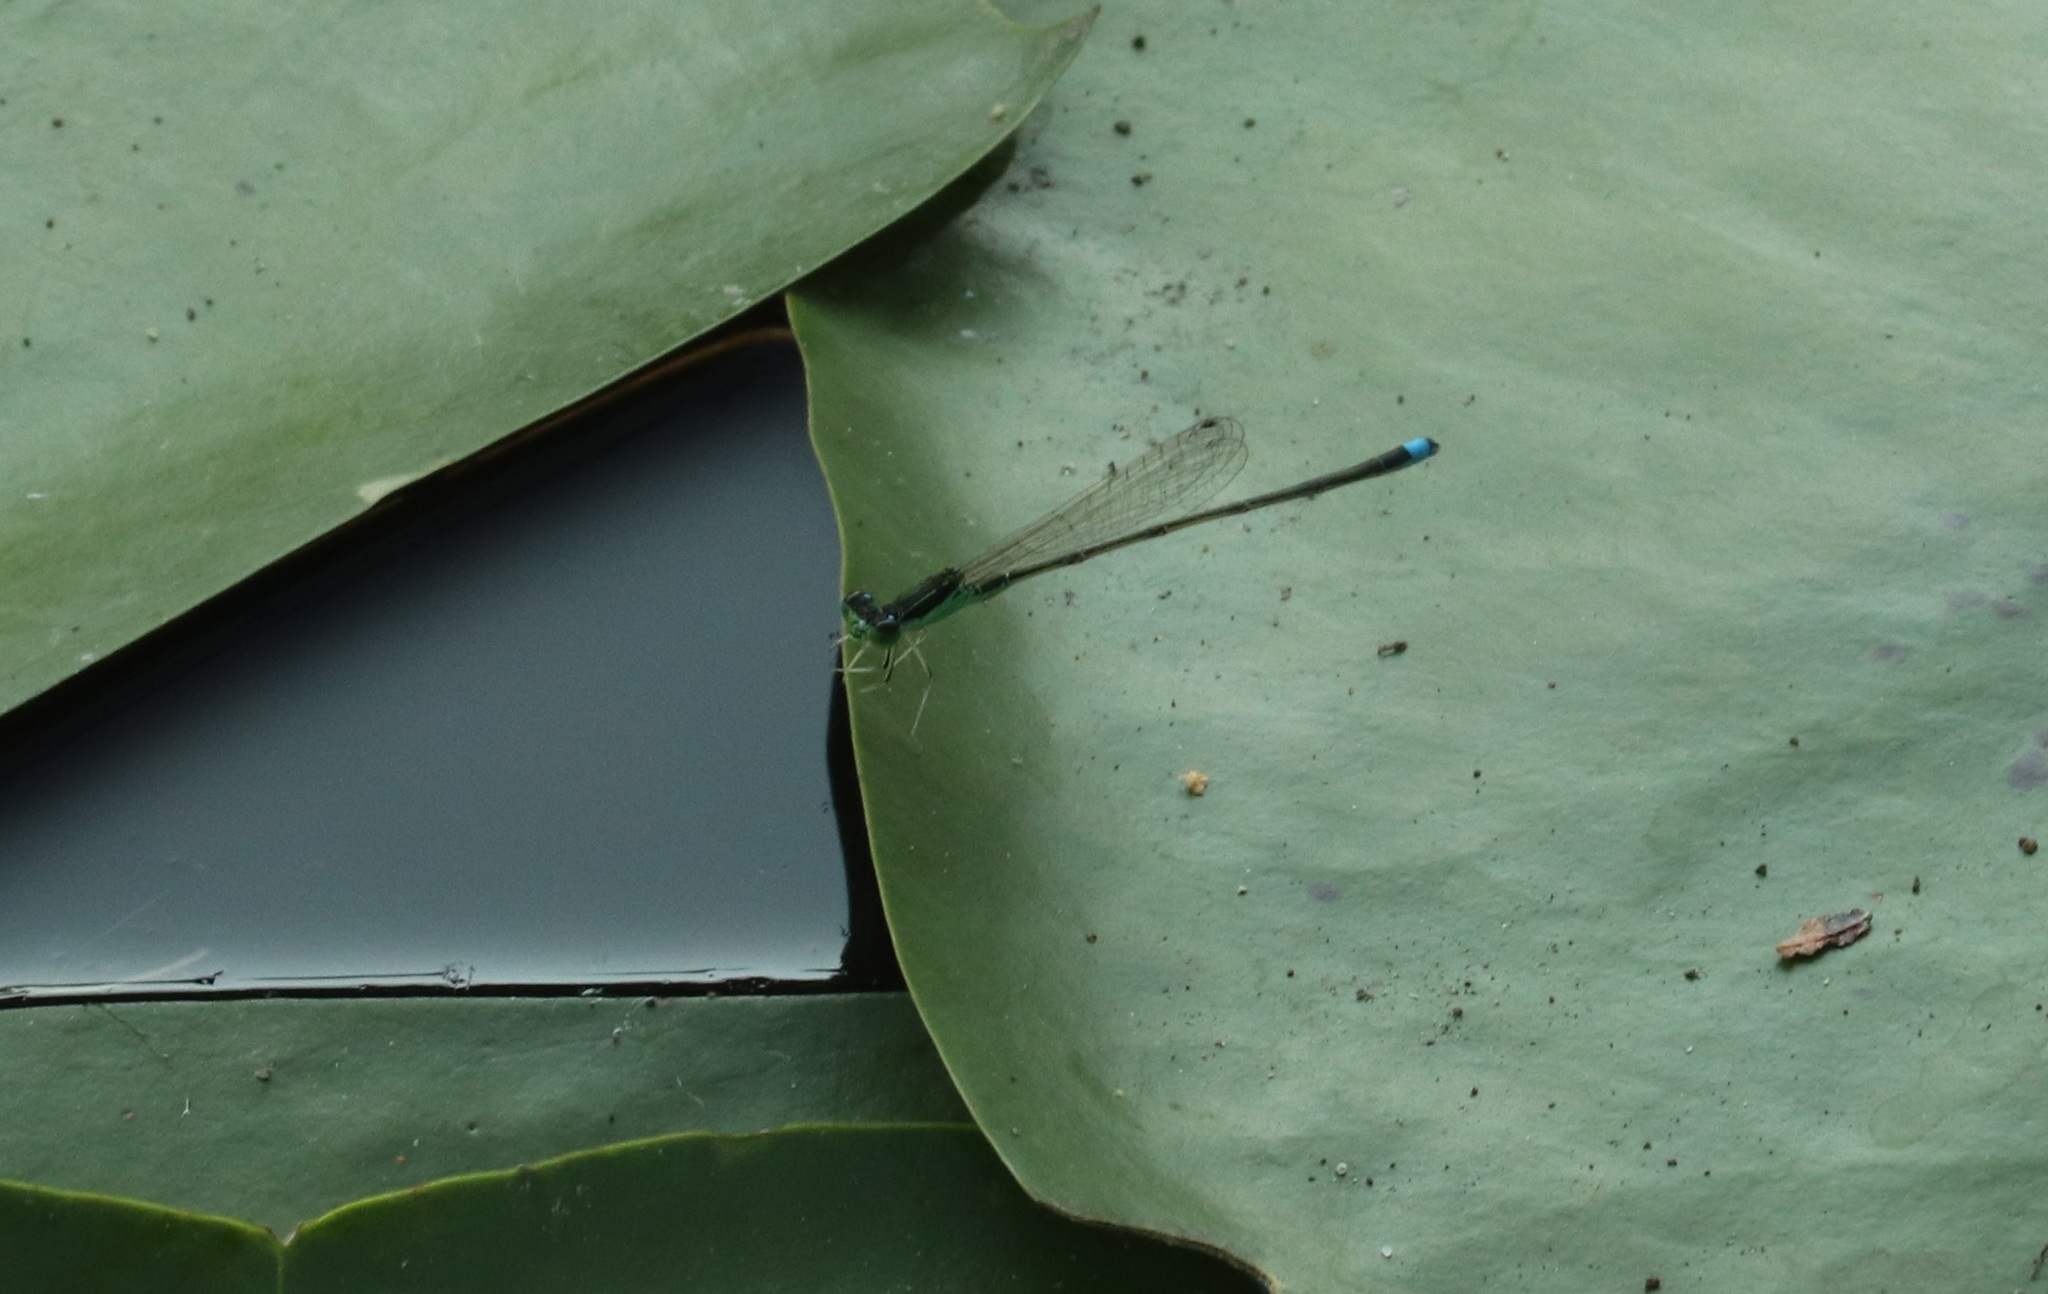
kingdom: Animalia
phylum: Arthropoda
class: Insecta
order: Odonata
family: Coenagrionidae
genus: Ischnura
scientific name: Ischnura senegalensis
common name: Tropical bluetail
